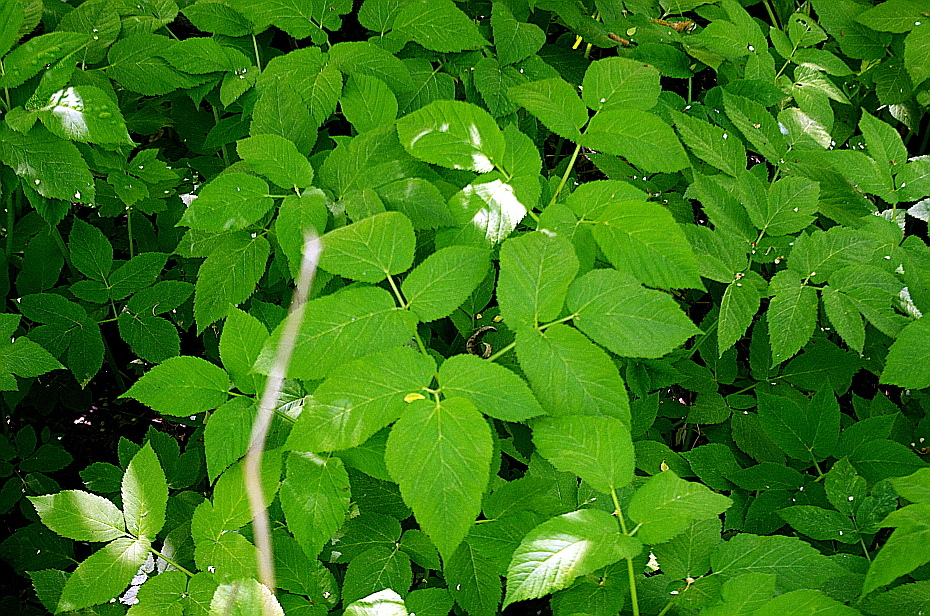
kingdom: Plantae
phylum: Tracheophyta
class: Magnoliopsida
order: Apiales
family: Apiaceae
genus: Aegopodium
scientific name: Aegopodium podagraria
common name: Ground-elder
